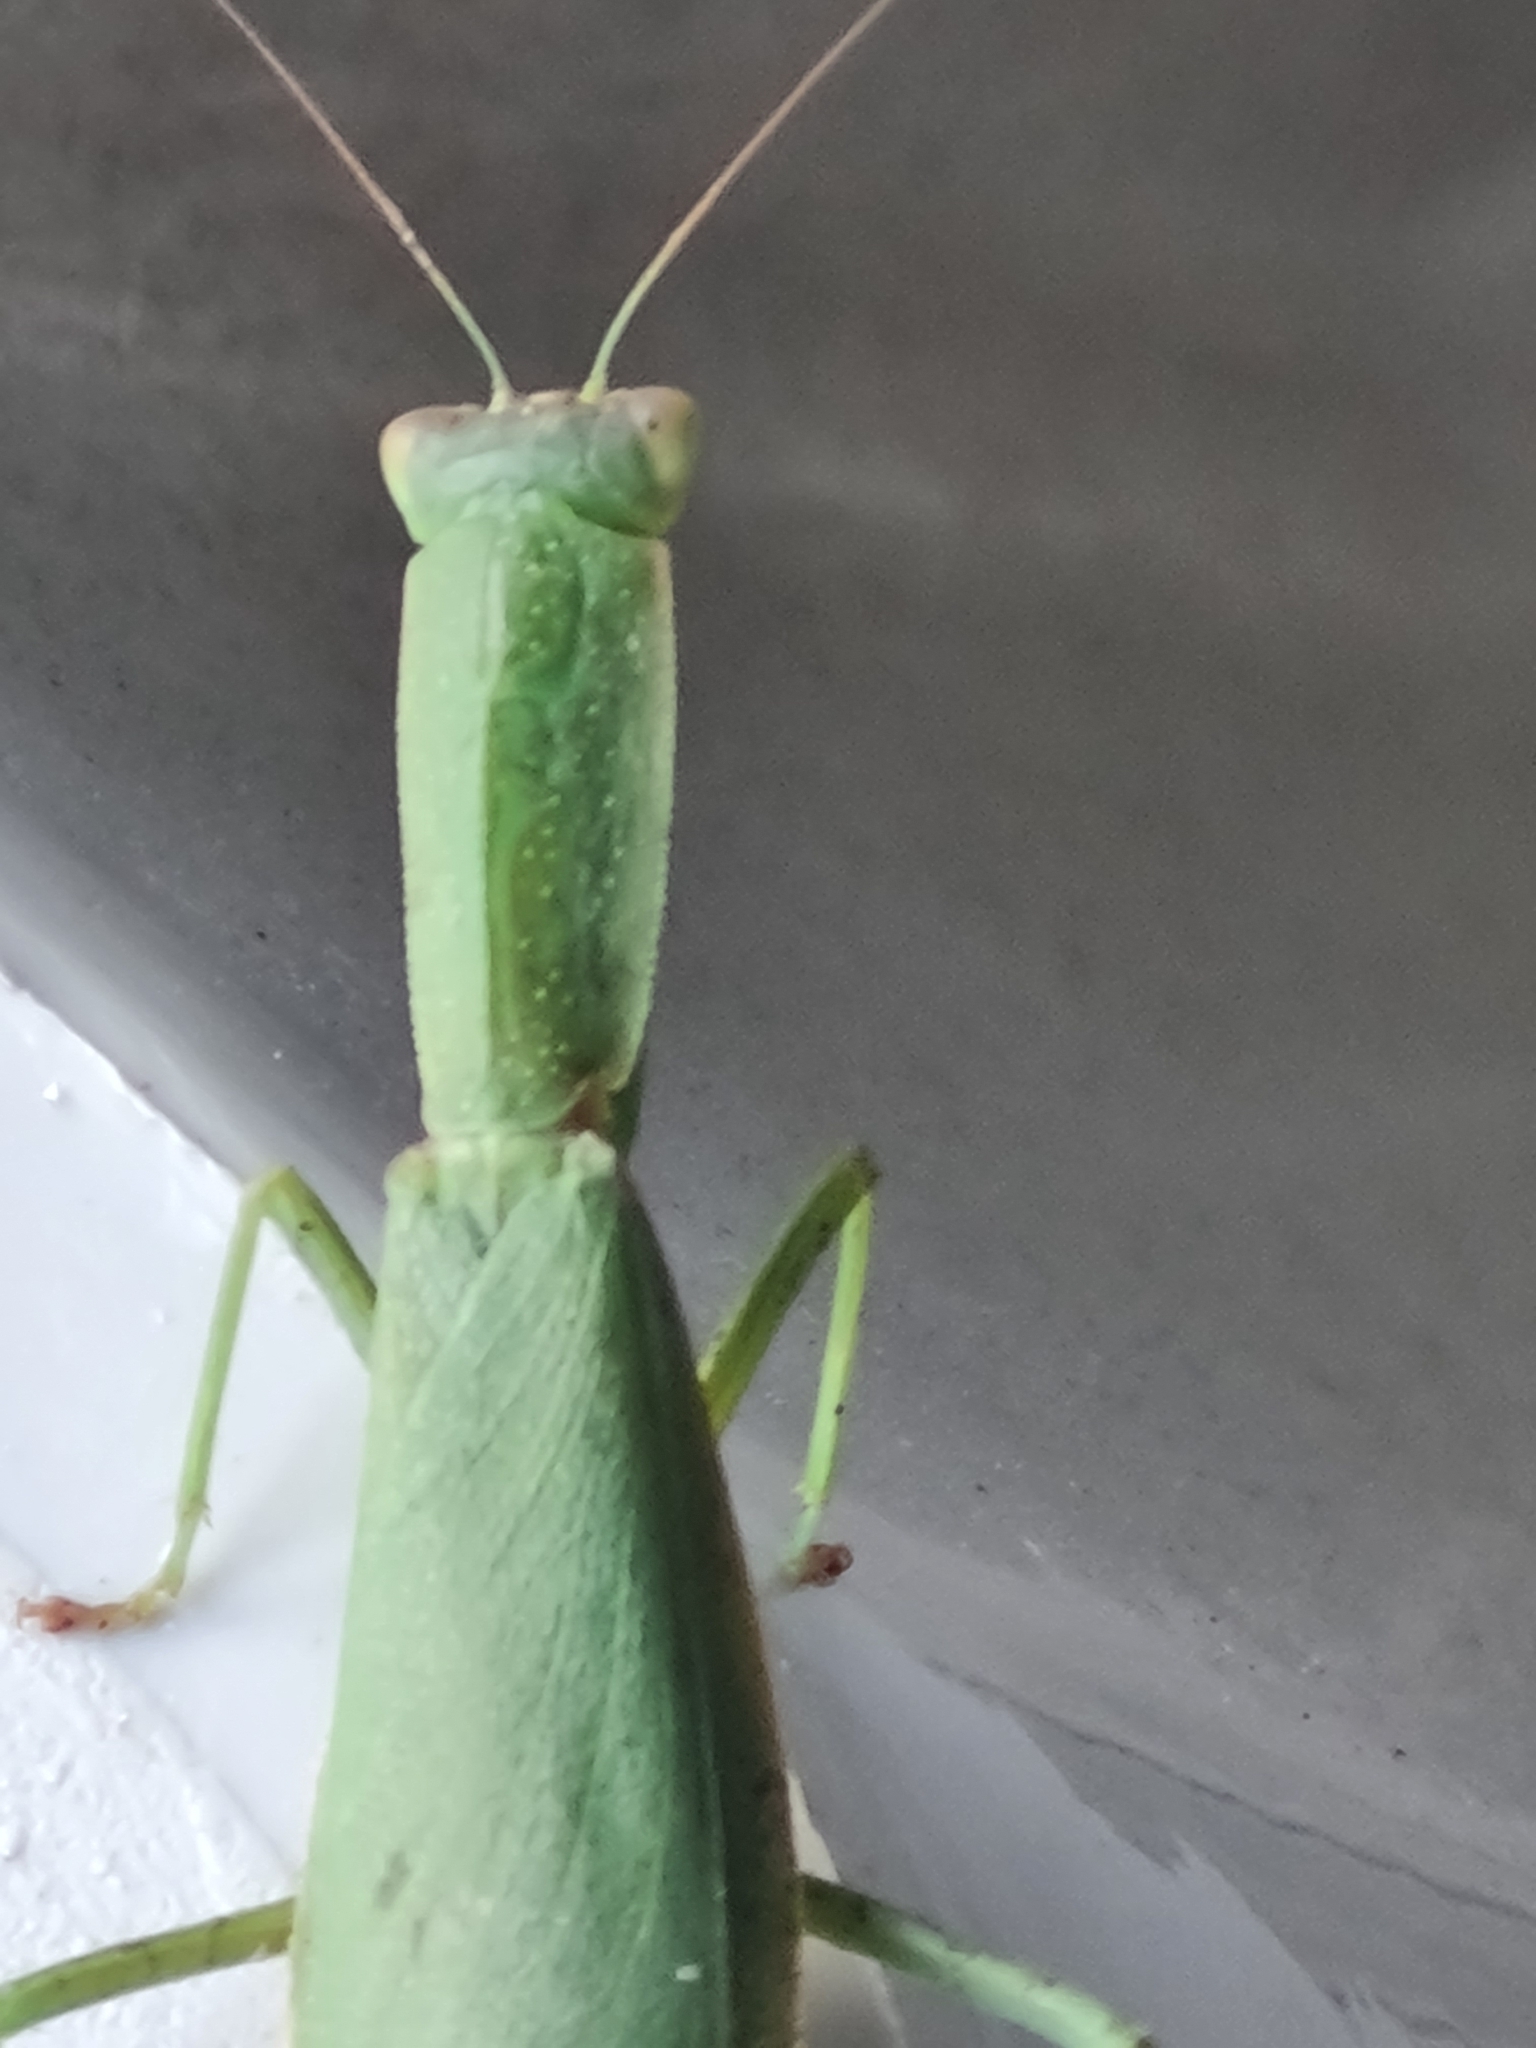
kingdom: Animalia
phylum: Arthropoda
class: Insecta
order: Mantodea
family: Mantidae
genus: Orthodera
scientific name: Orthodera novaezealandiae
